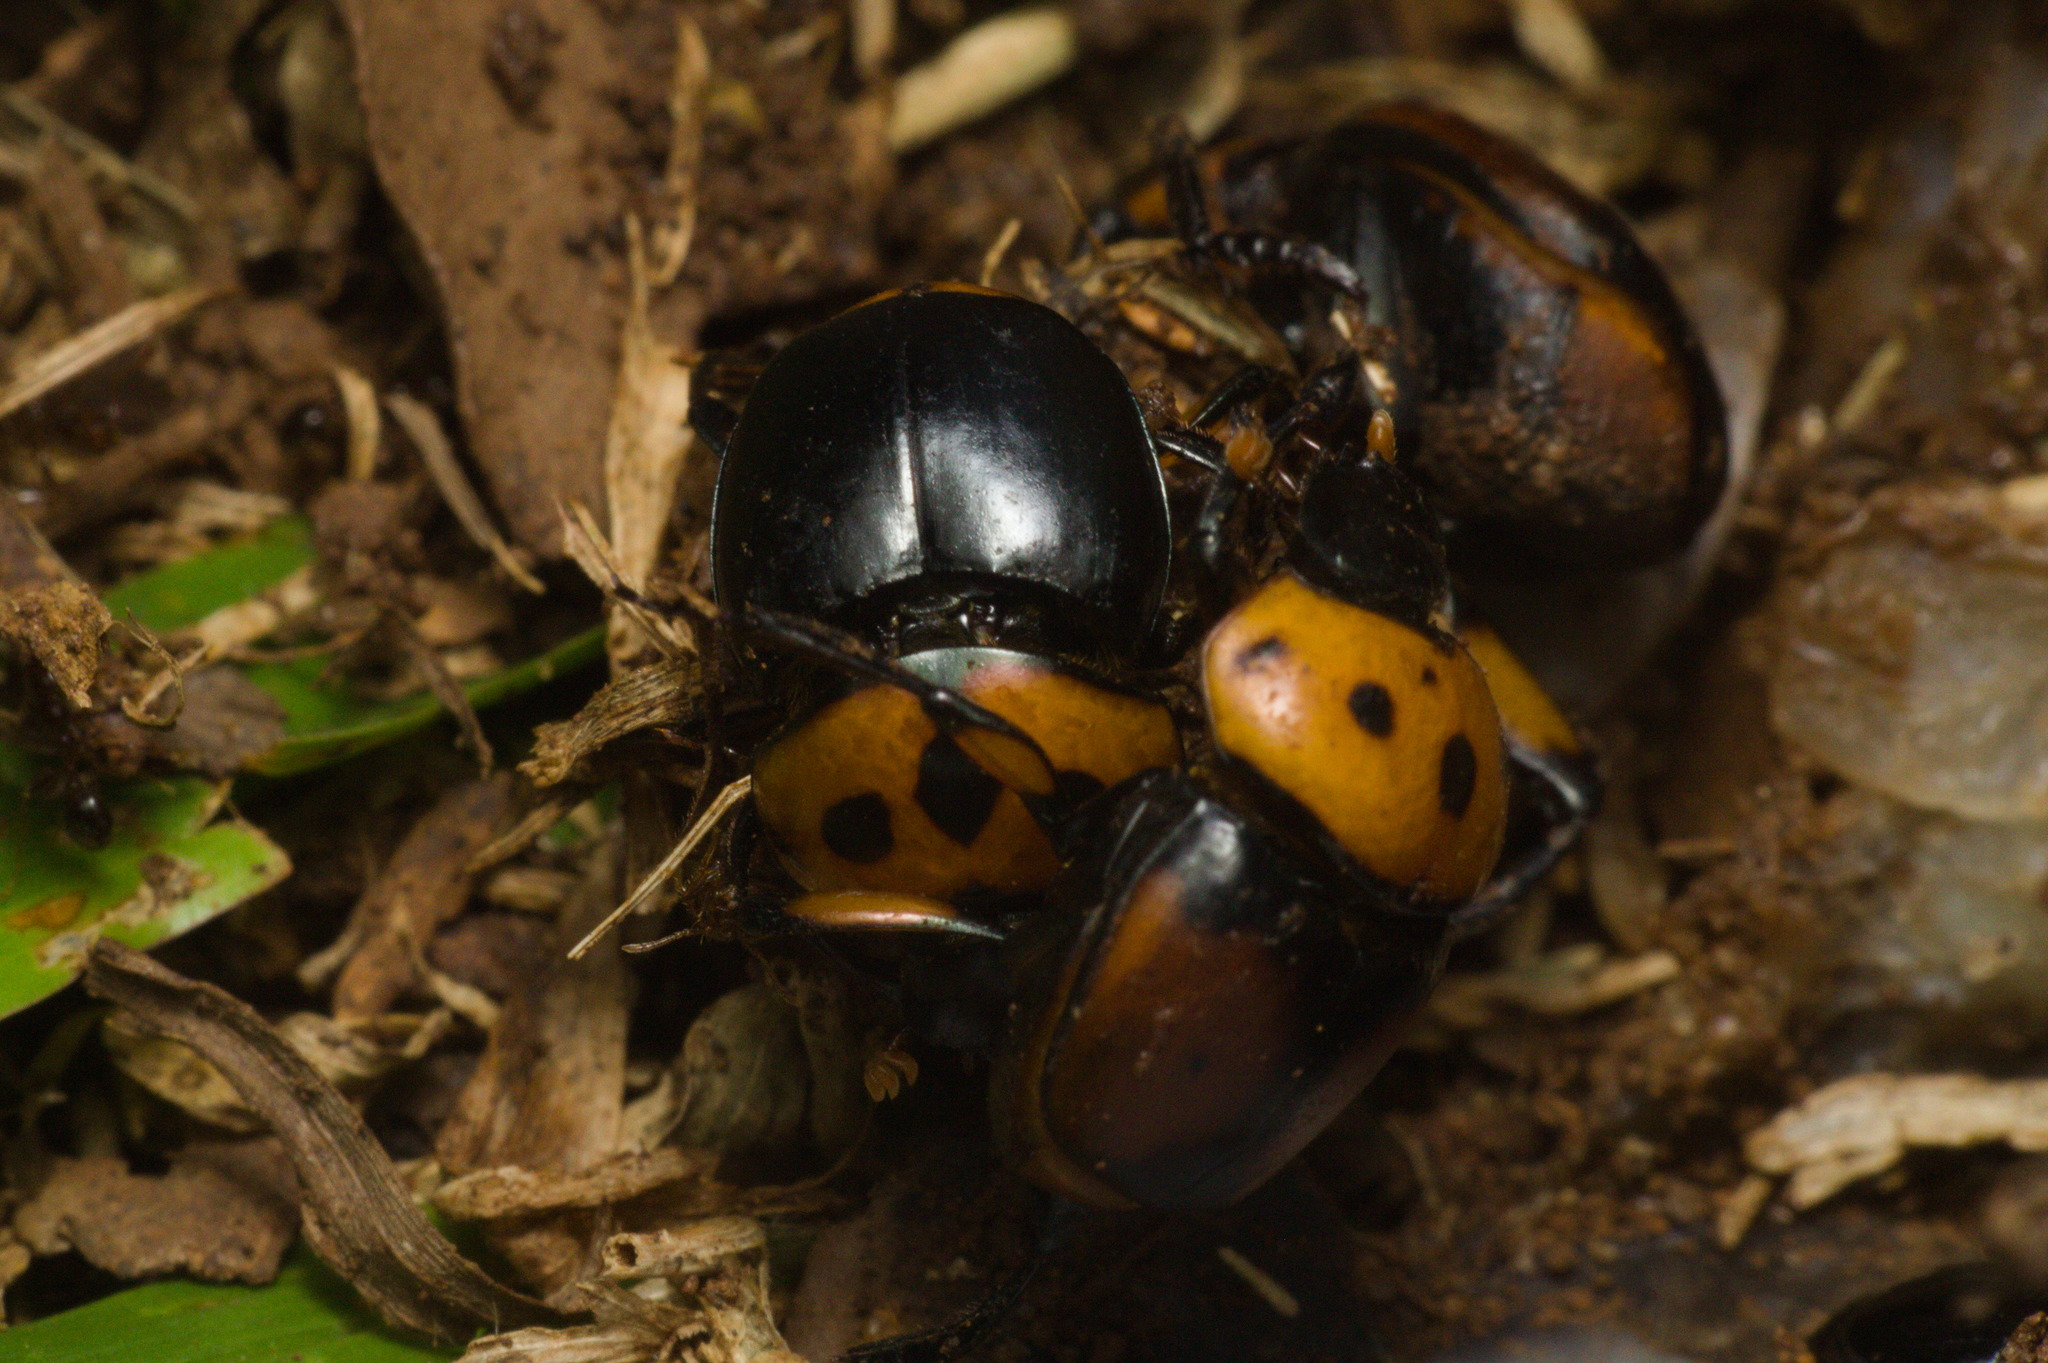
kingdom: Animalia
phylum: Arthropoda
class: Insecta
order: Coleoptera
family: Scarabaeidae
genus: Canthon
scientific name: Canthon quinquemaculatus
